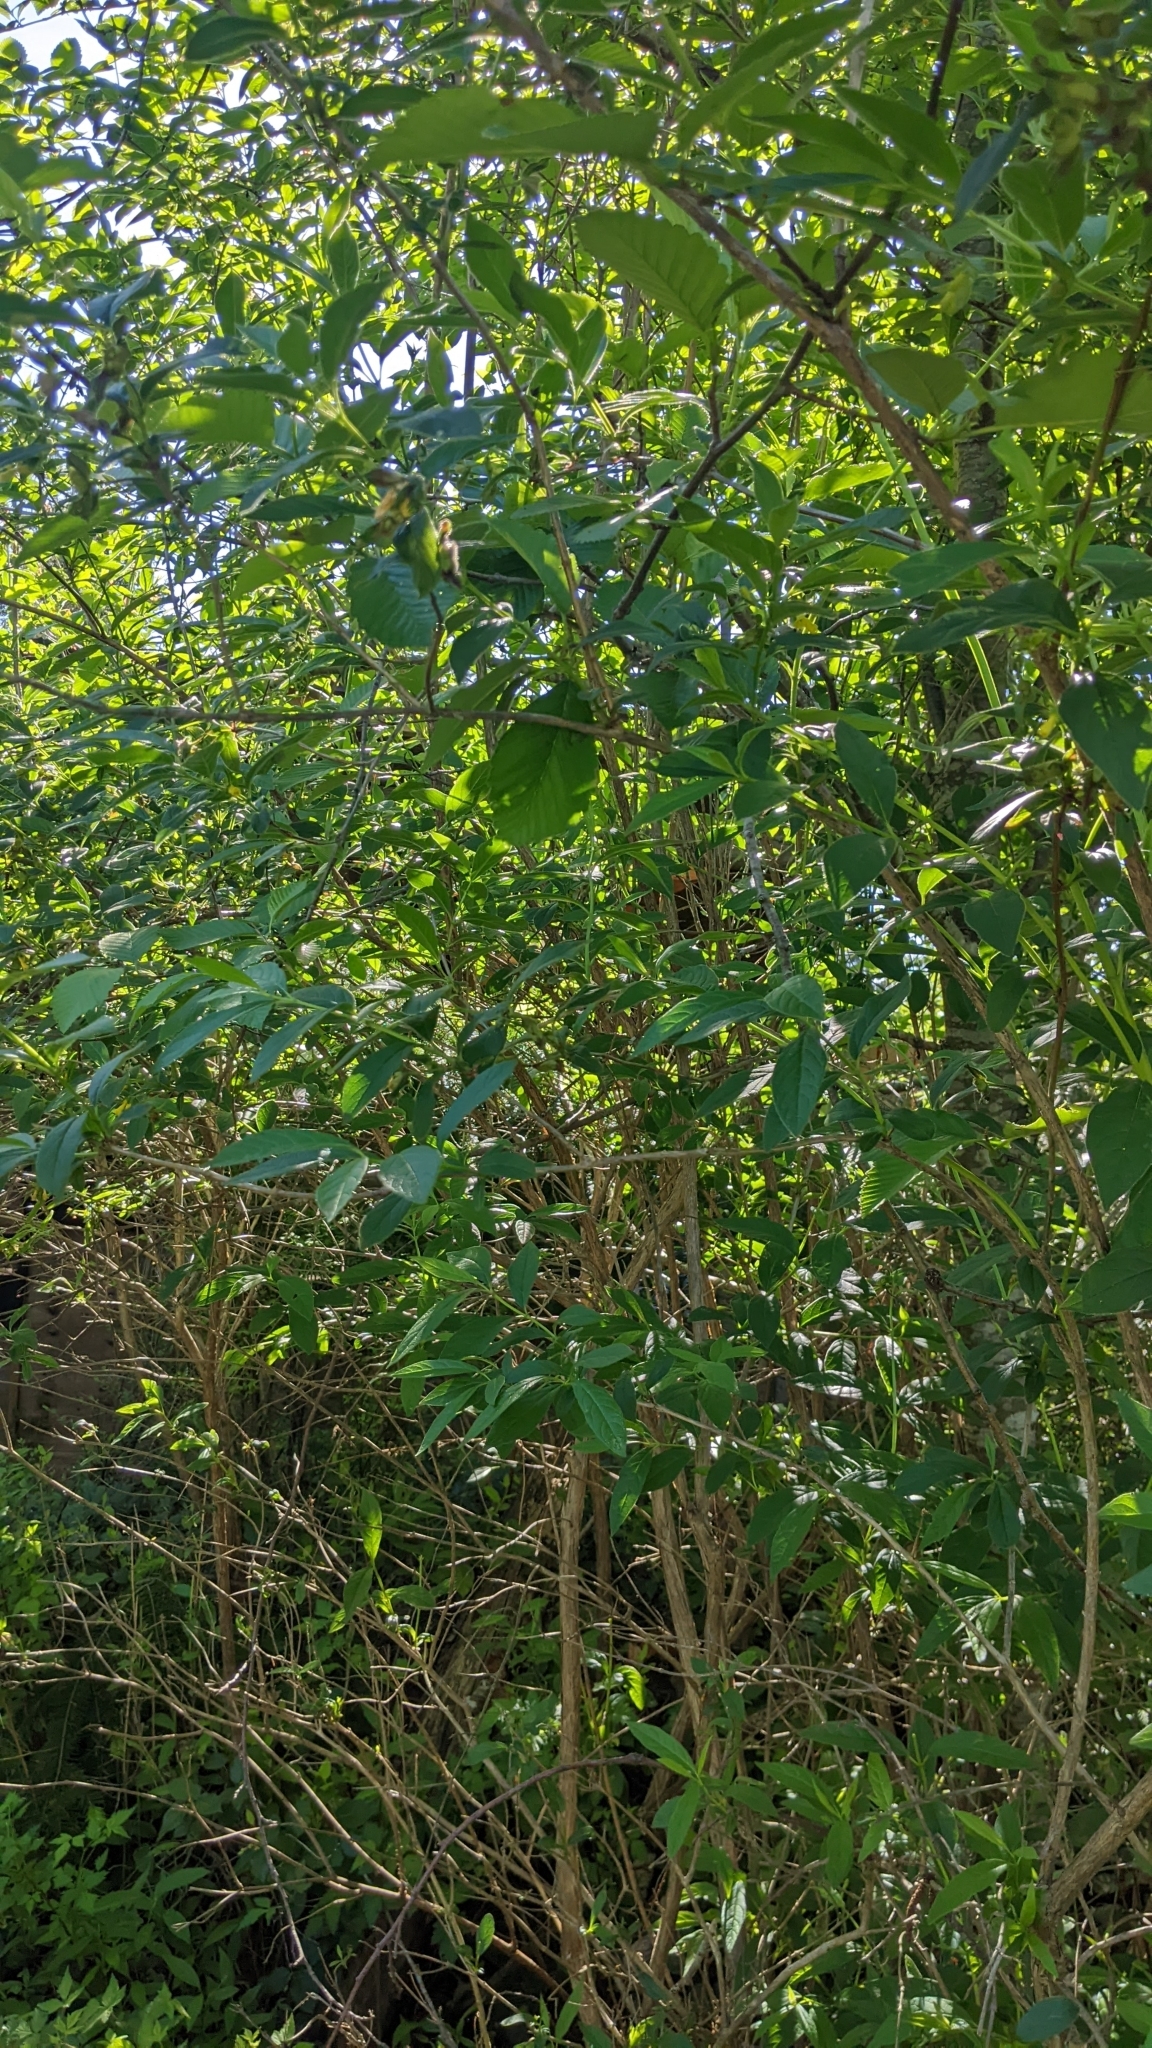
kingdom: Plantae
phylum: Tracheophyta
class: Magnoliopsida
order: Dipsacales
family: Caprifoliaceae
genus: Lonicera
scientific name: Lonicera involucrata
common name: Californian honeysuckle
